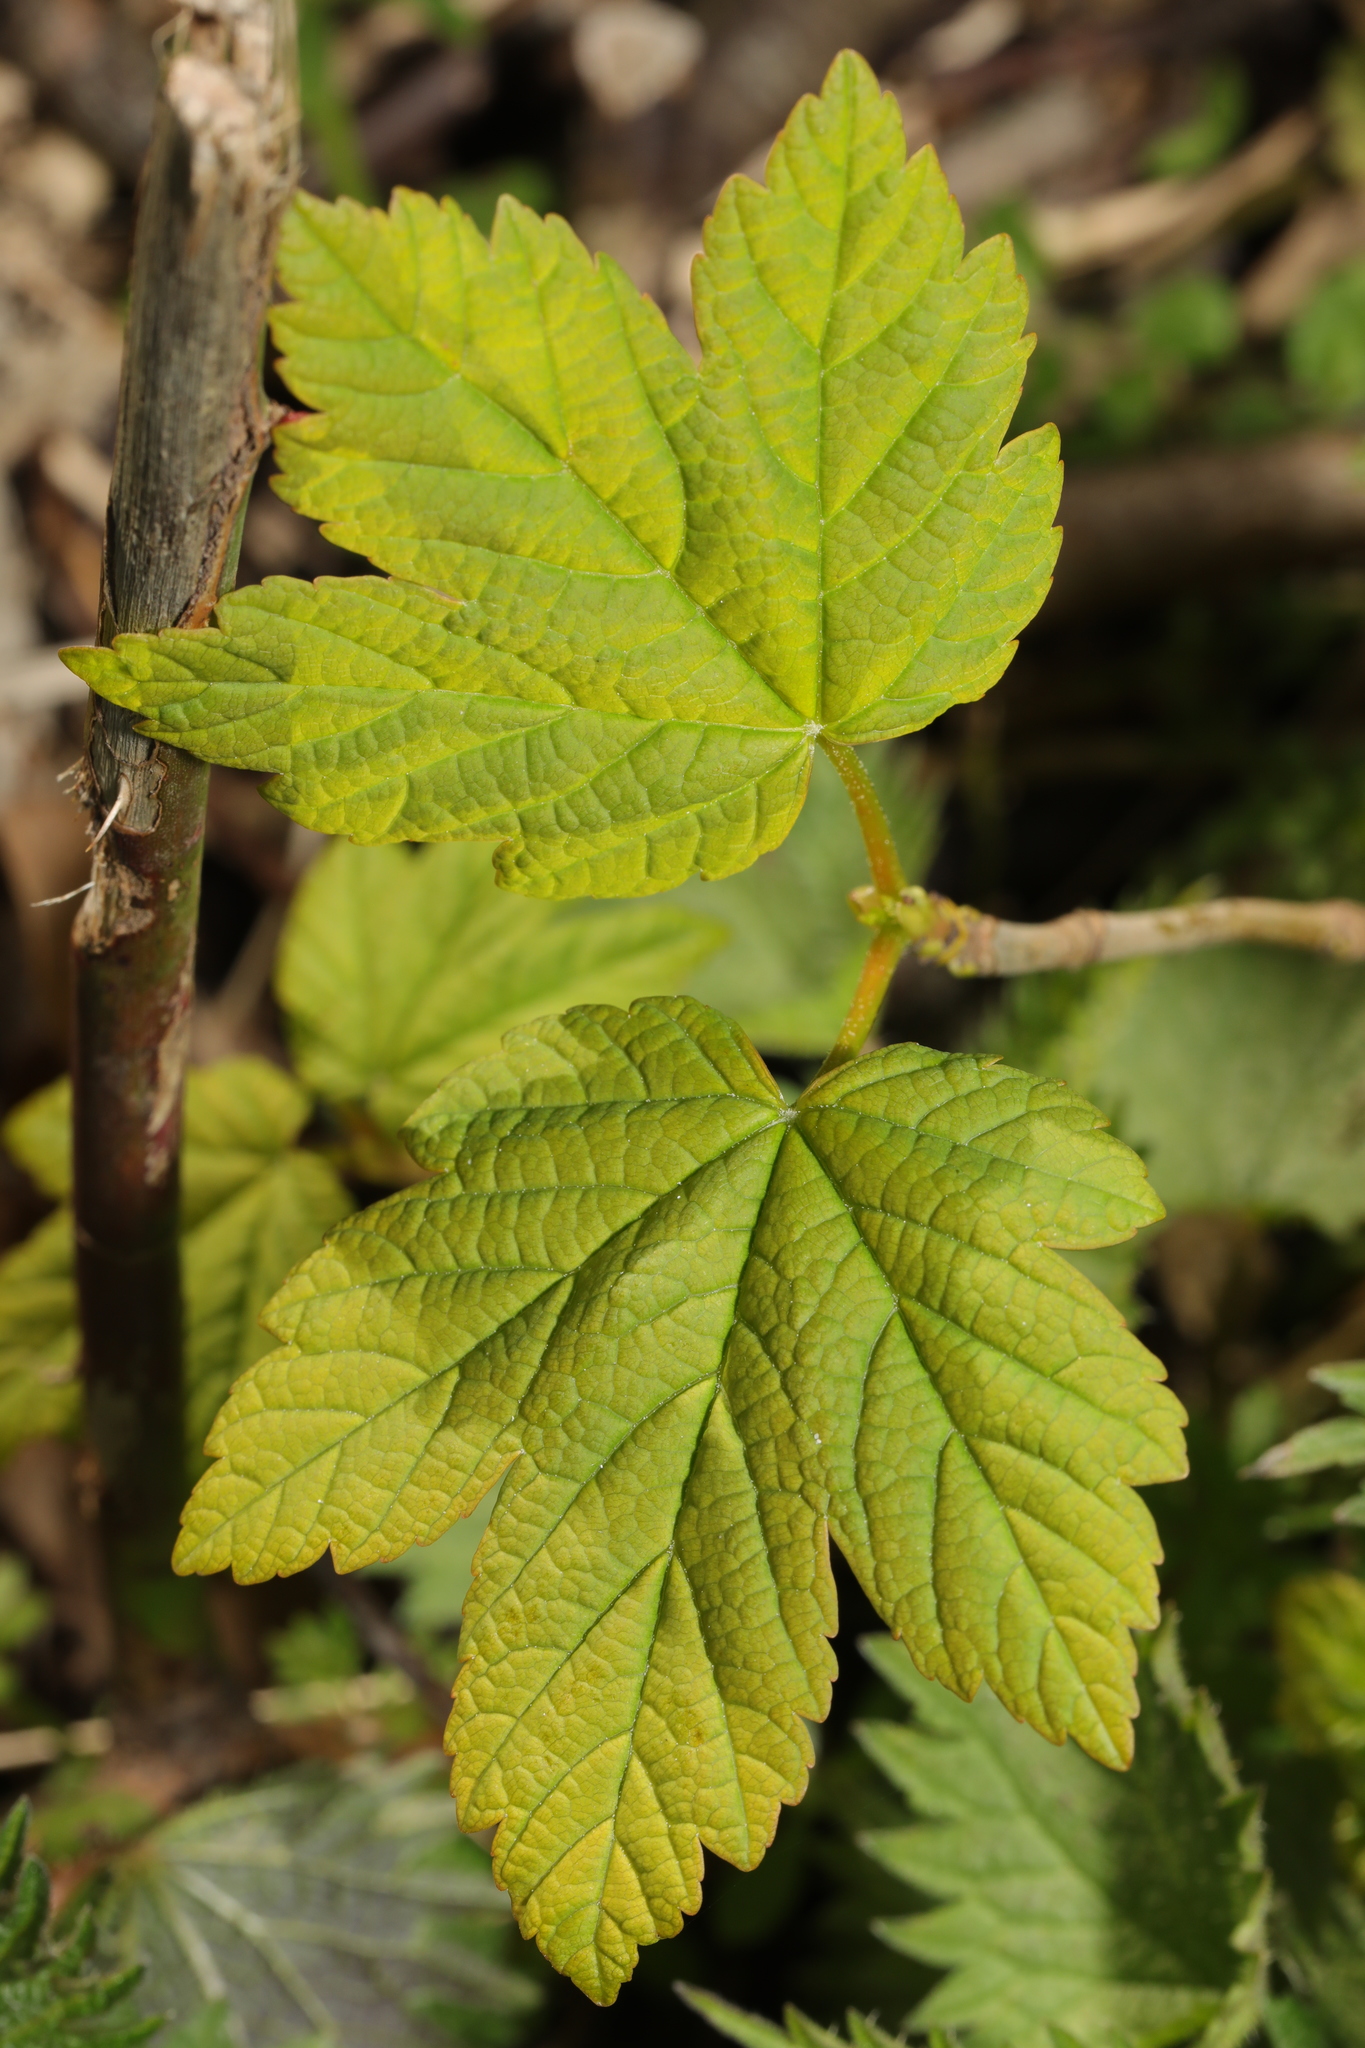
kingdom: Plantae
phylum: Tracheophyta
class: Magnoliopsida
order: Sapindales
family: Sapindaceae
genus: Acer
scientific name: Acer pseudoplatanus
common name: Sycamore
